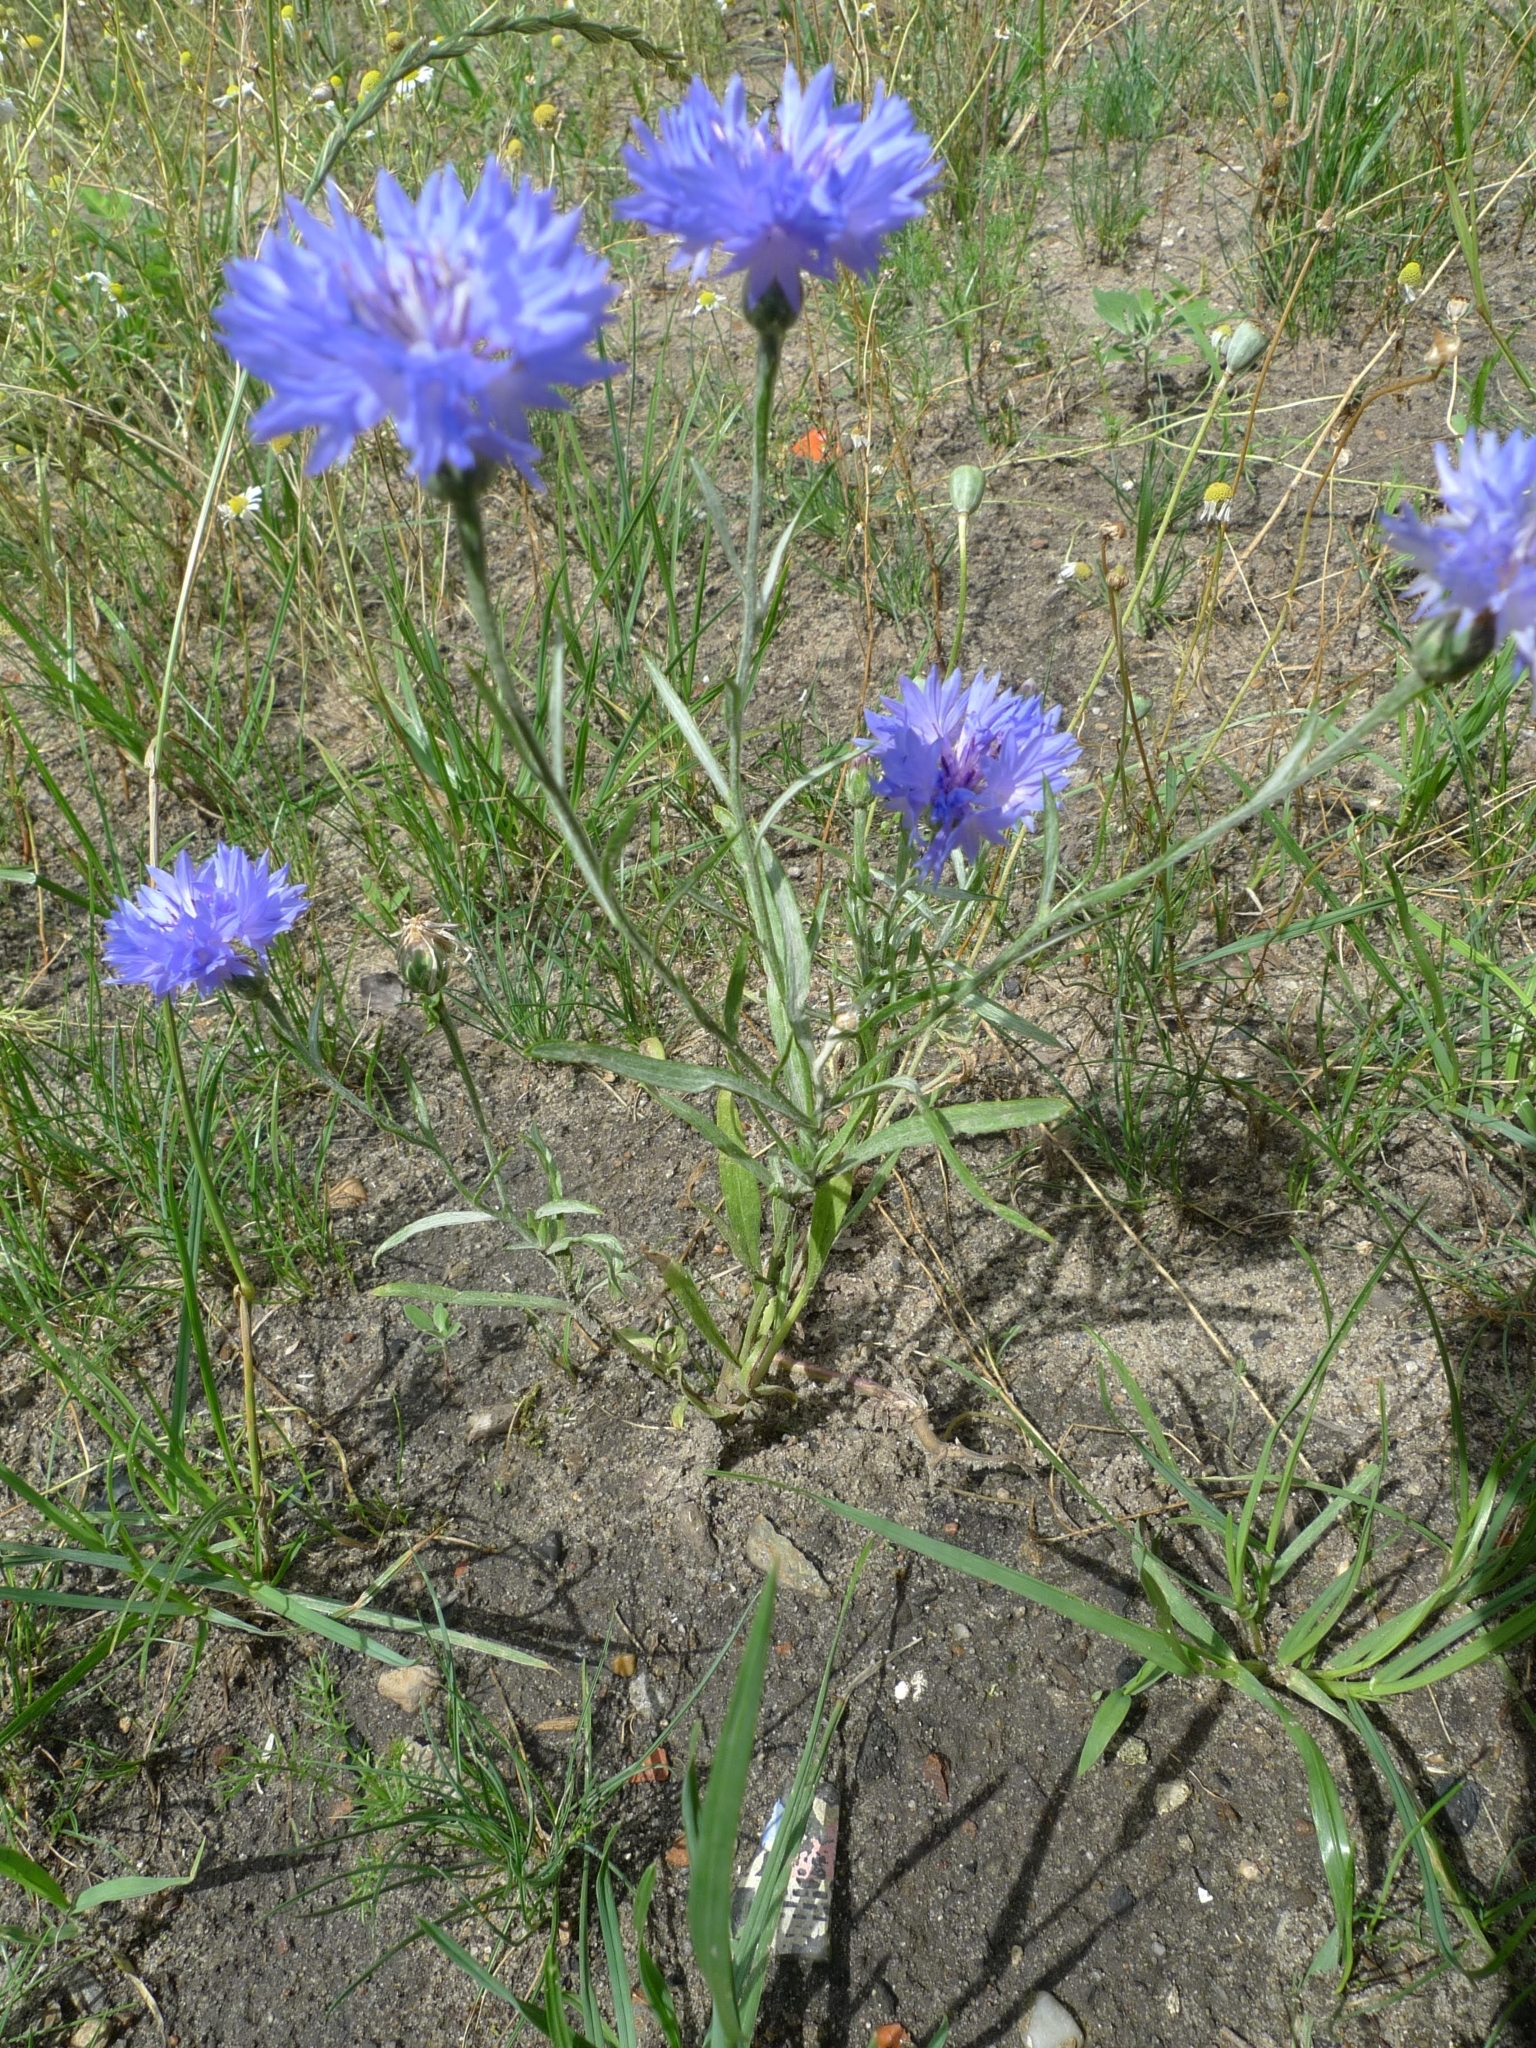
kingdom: Plantae
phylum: Tracheophyta
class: Magnoliopsida
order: Asterales
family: Asteraceae
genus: Centaurea
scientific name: Centaurea cyanus
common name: Cornflower
